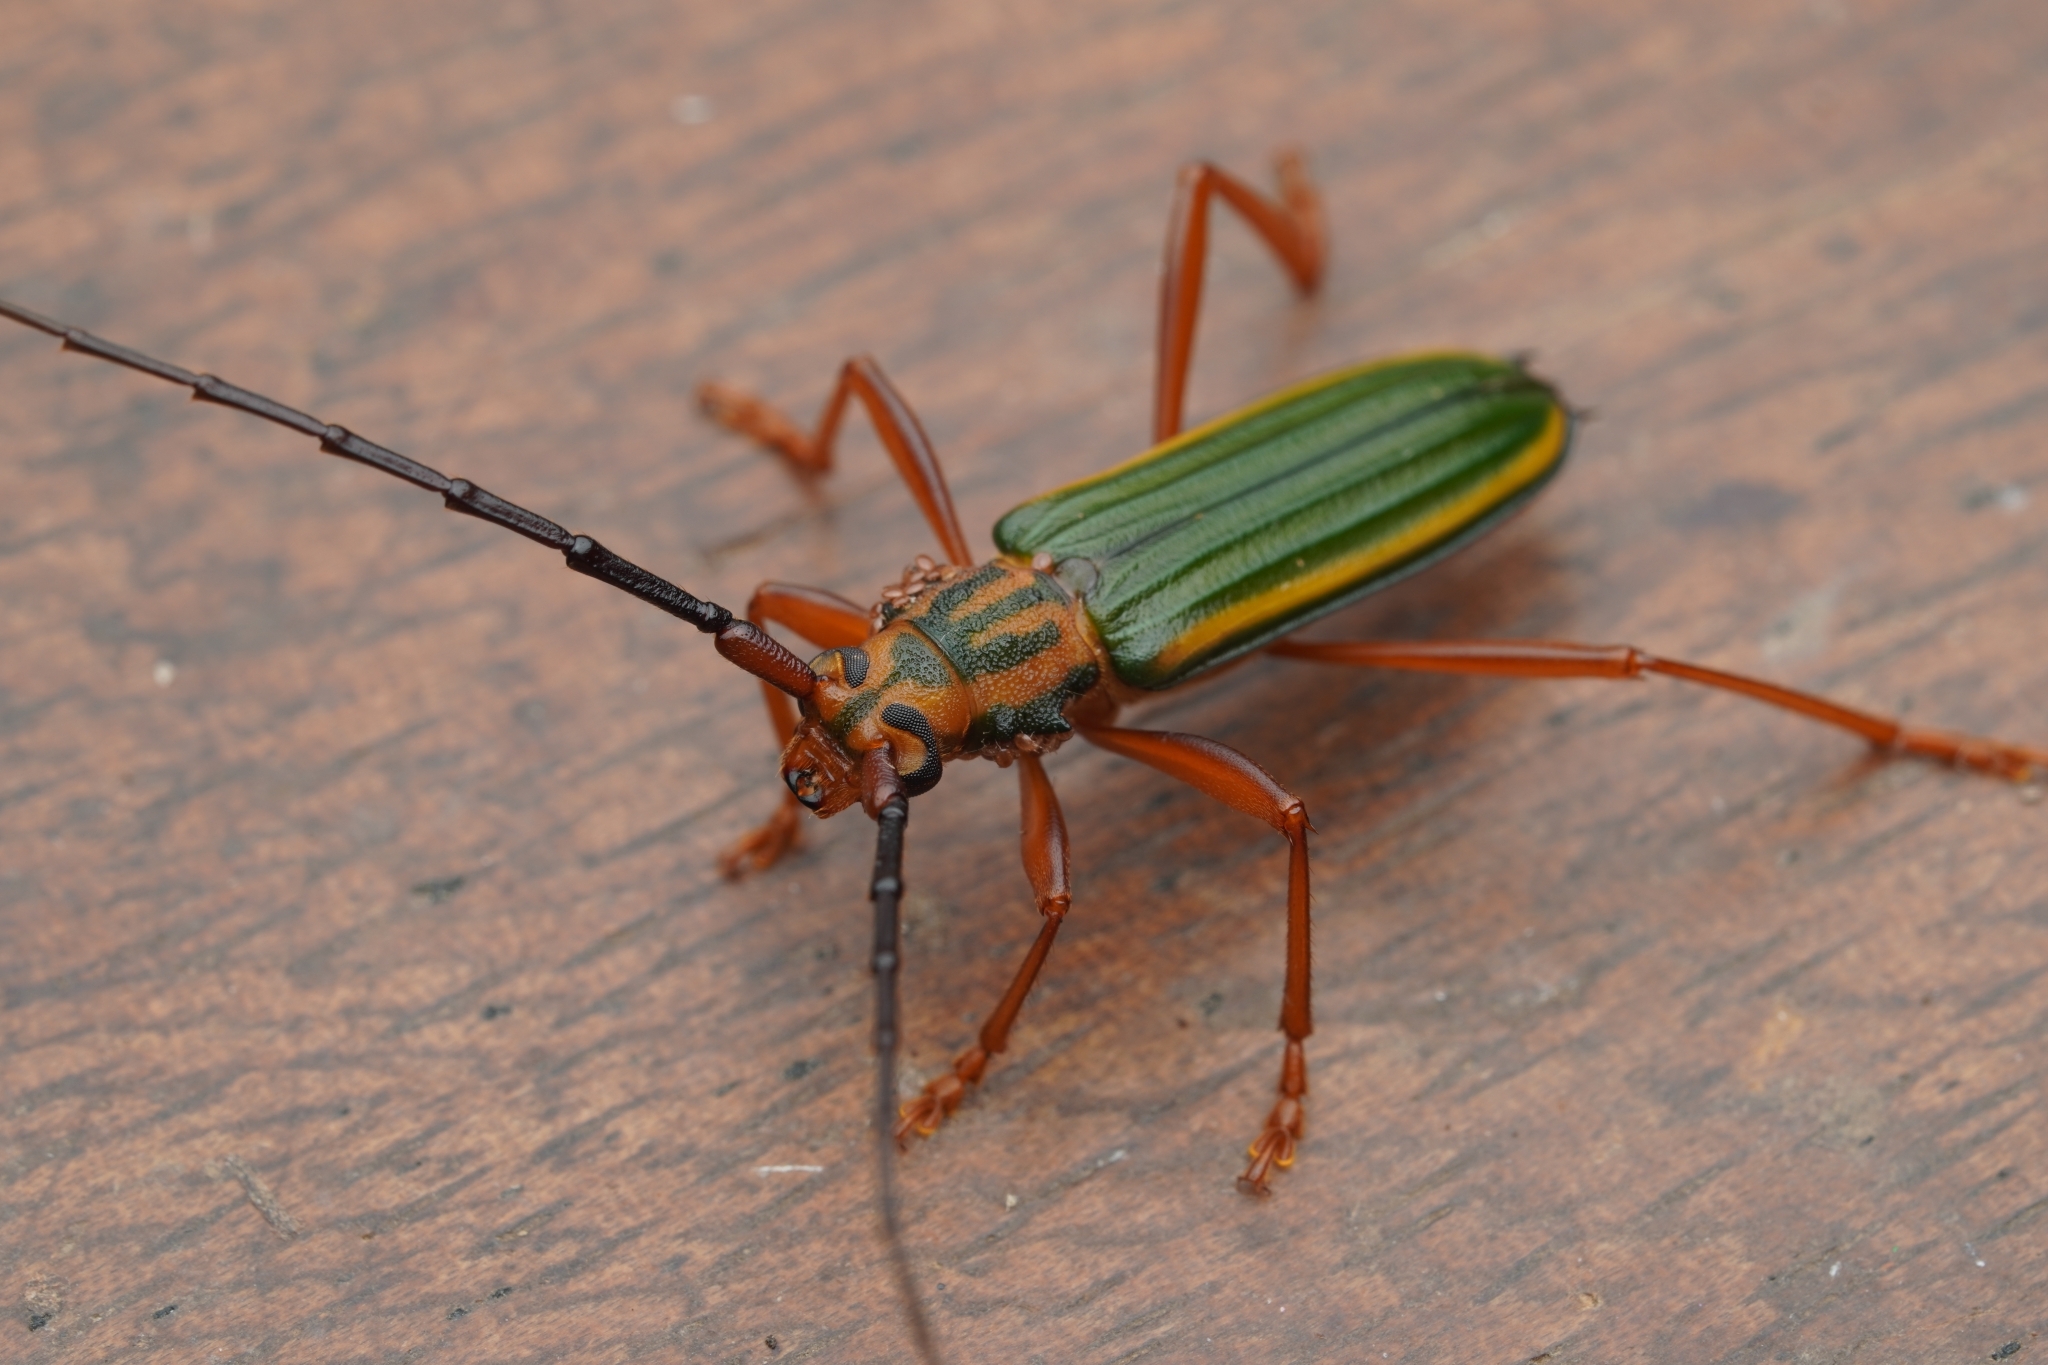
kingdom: Animalia
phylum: Arthropoda
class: Insecta
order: Coleoptera
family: Cerambycidae
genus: Chlorida
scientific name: Chlorida festiva
